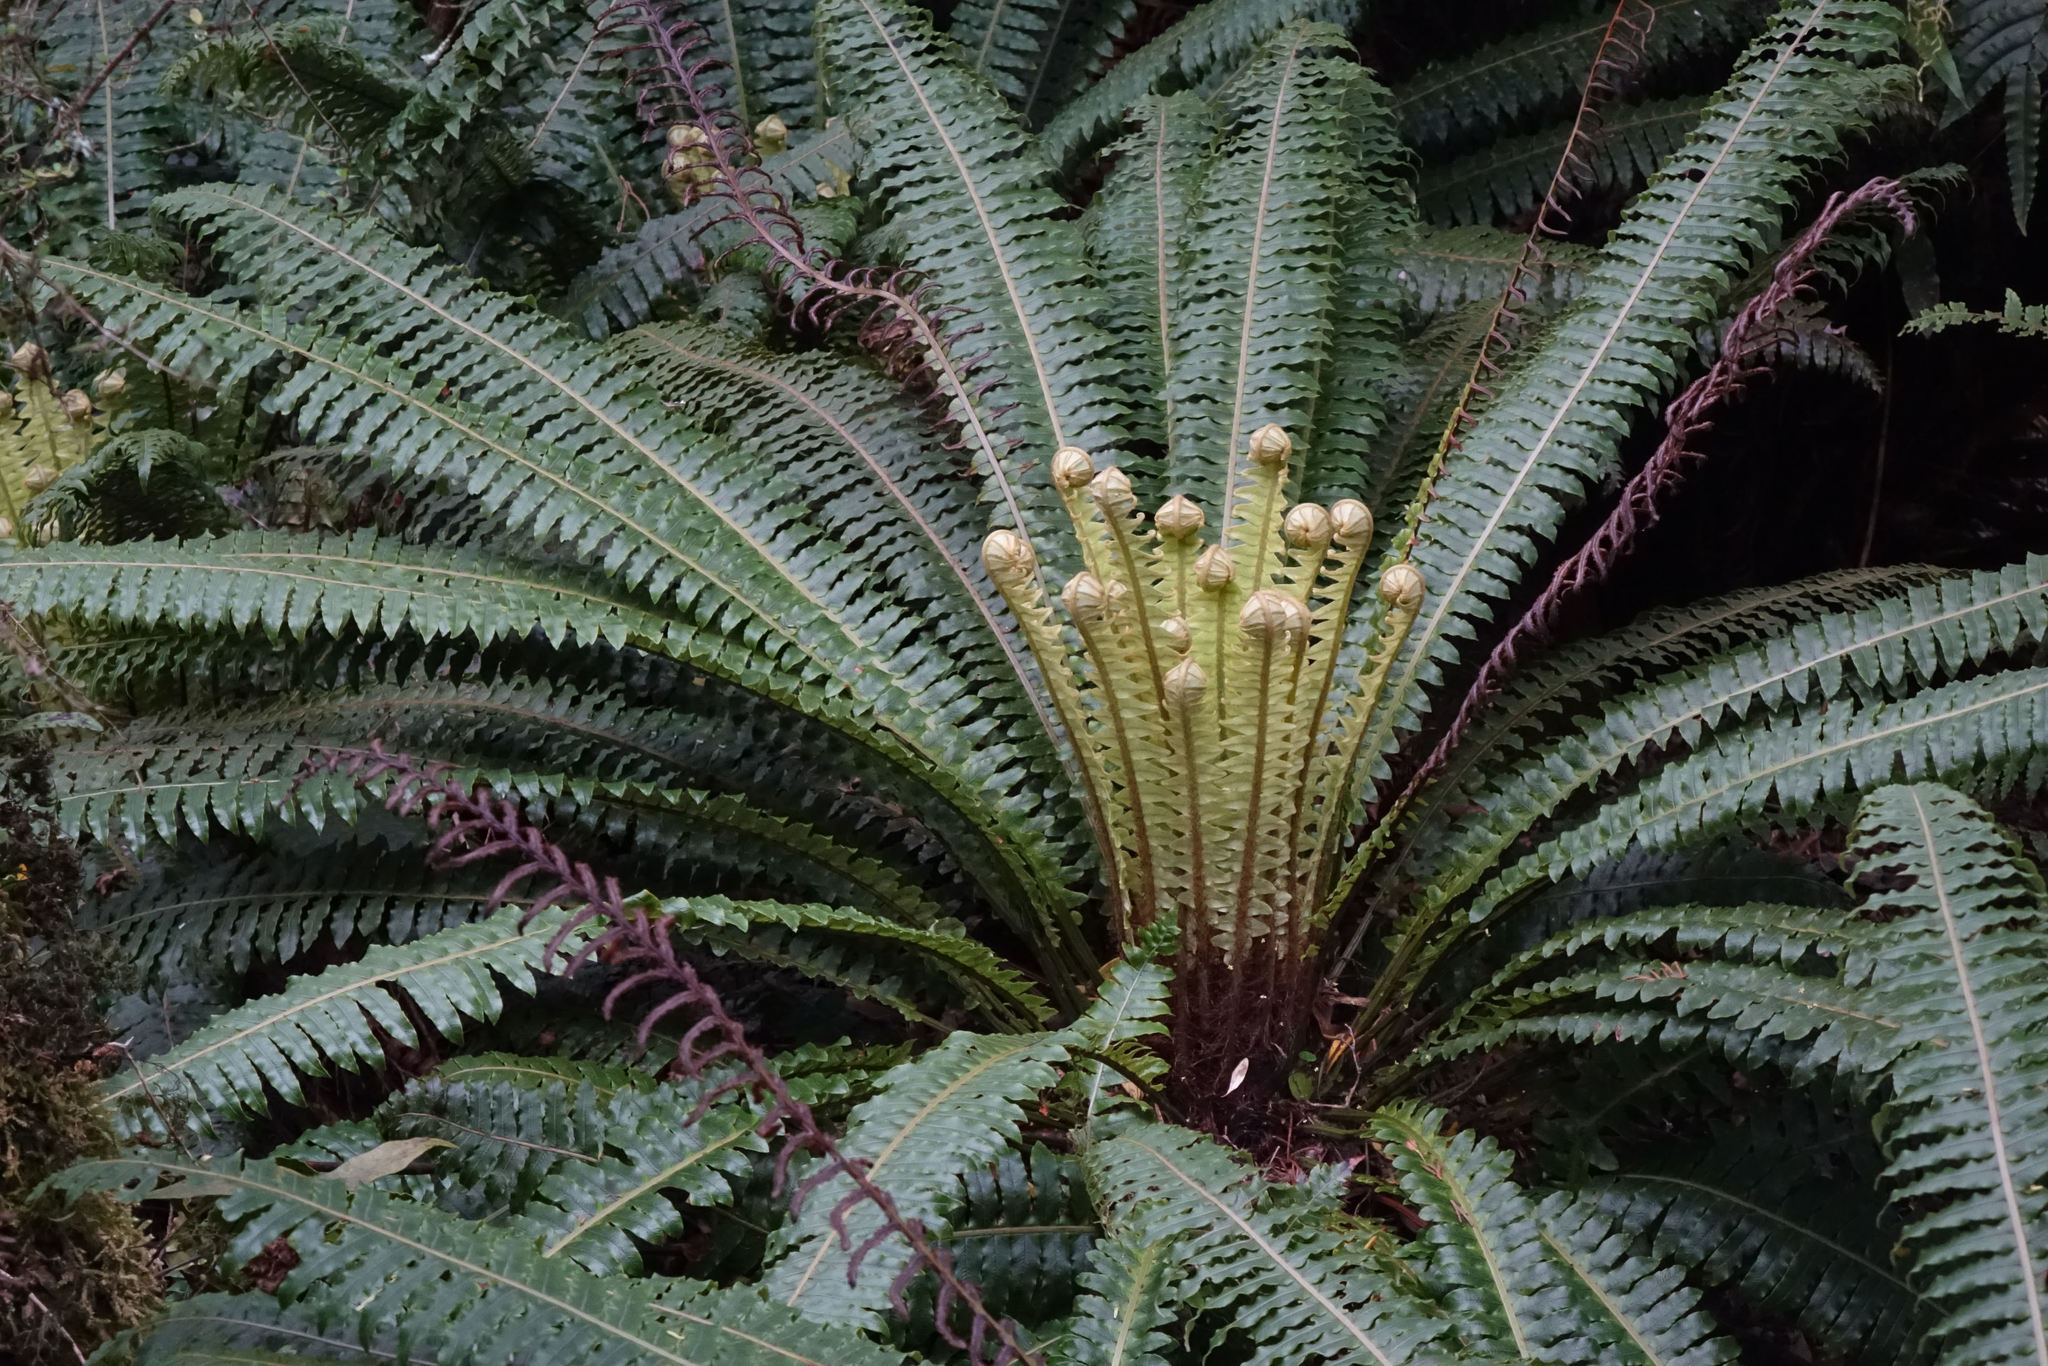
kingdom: Plantae
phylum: Tracheophyta
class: Polypodiopsida
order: Polypodiales
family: Blechnaceae
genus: Lomaria
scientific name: Lomaria discolor
